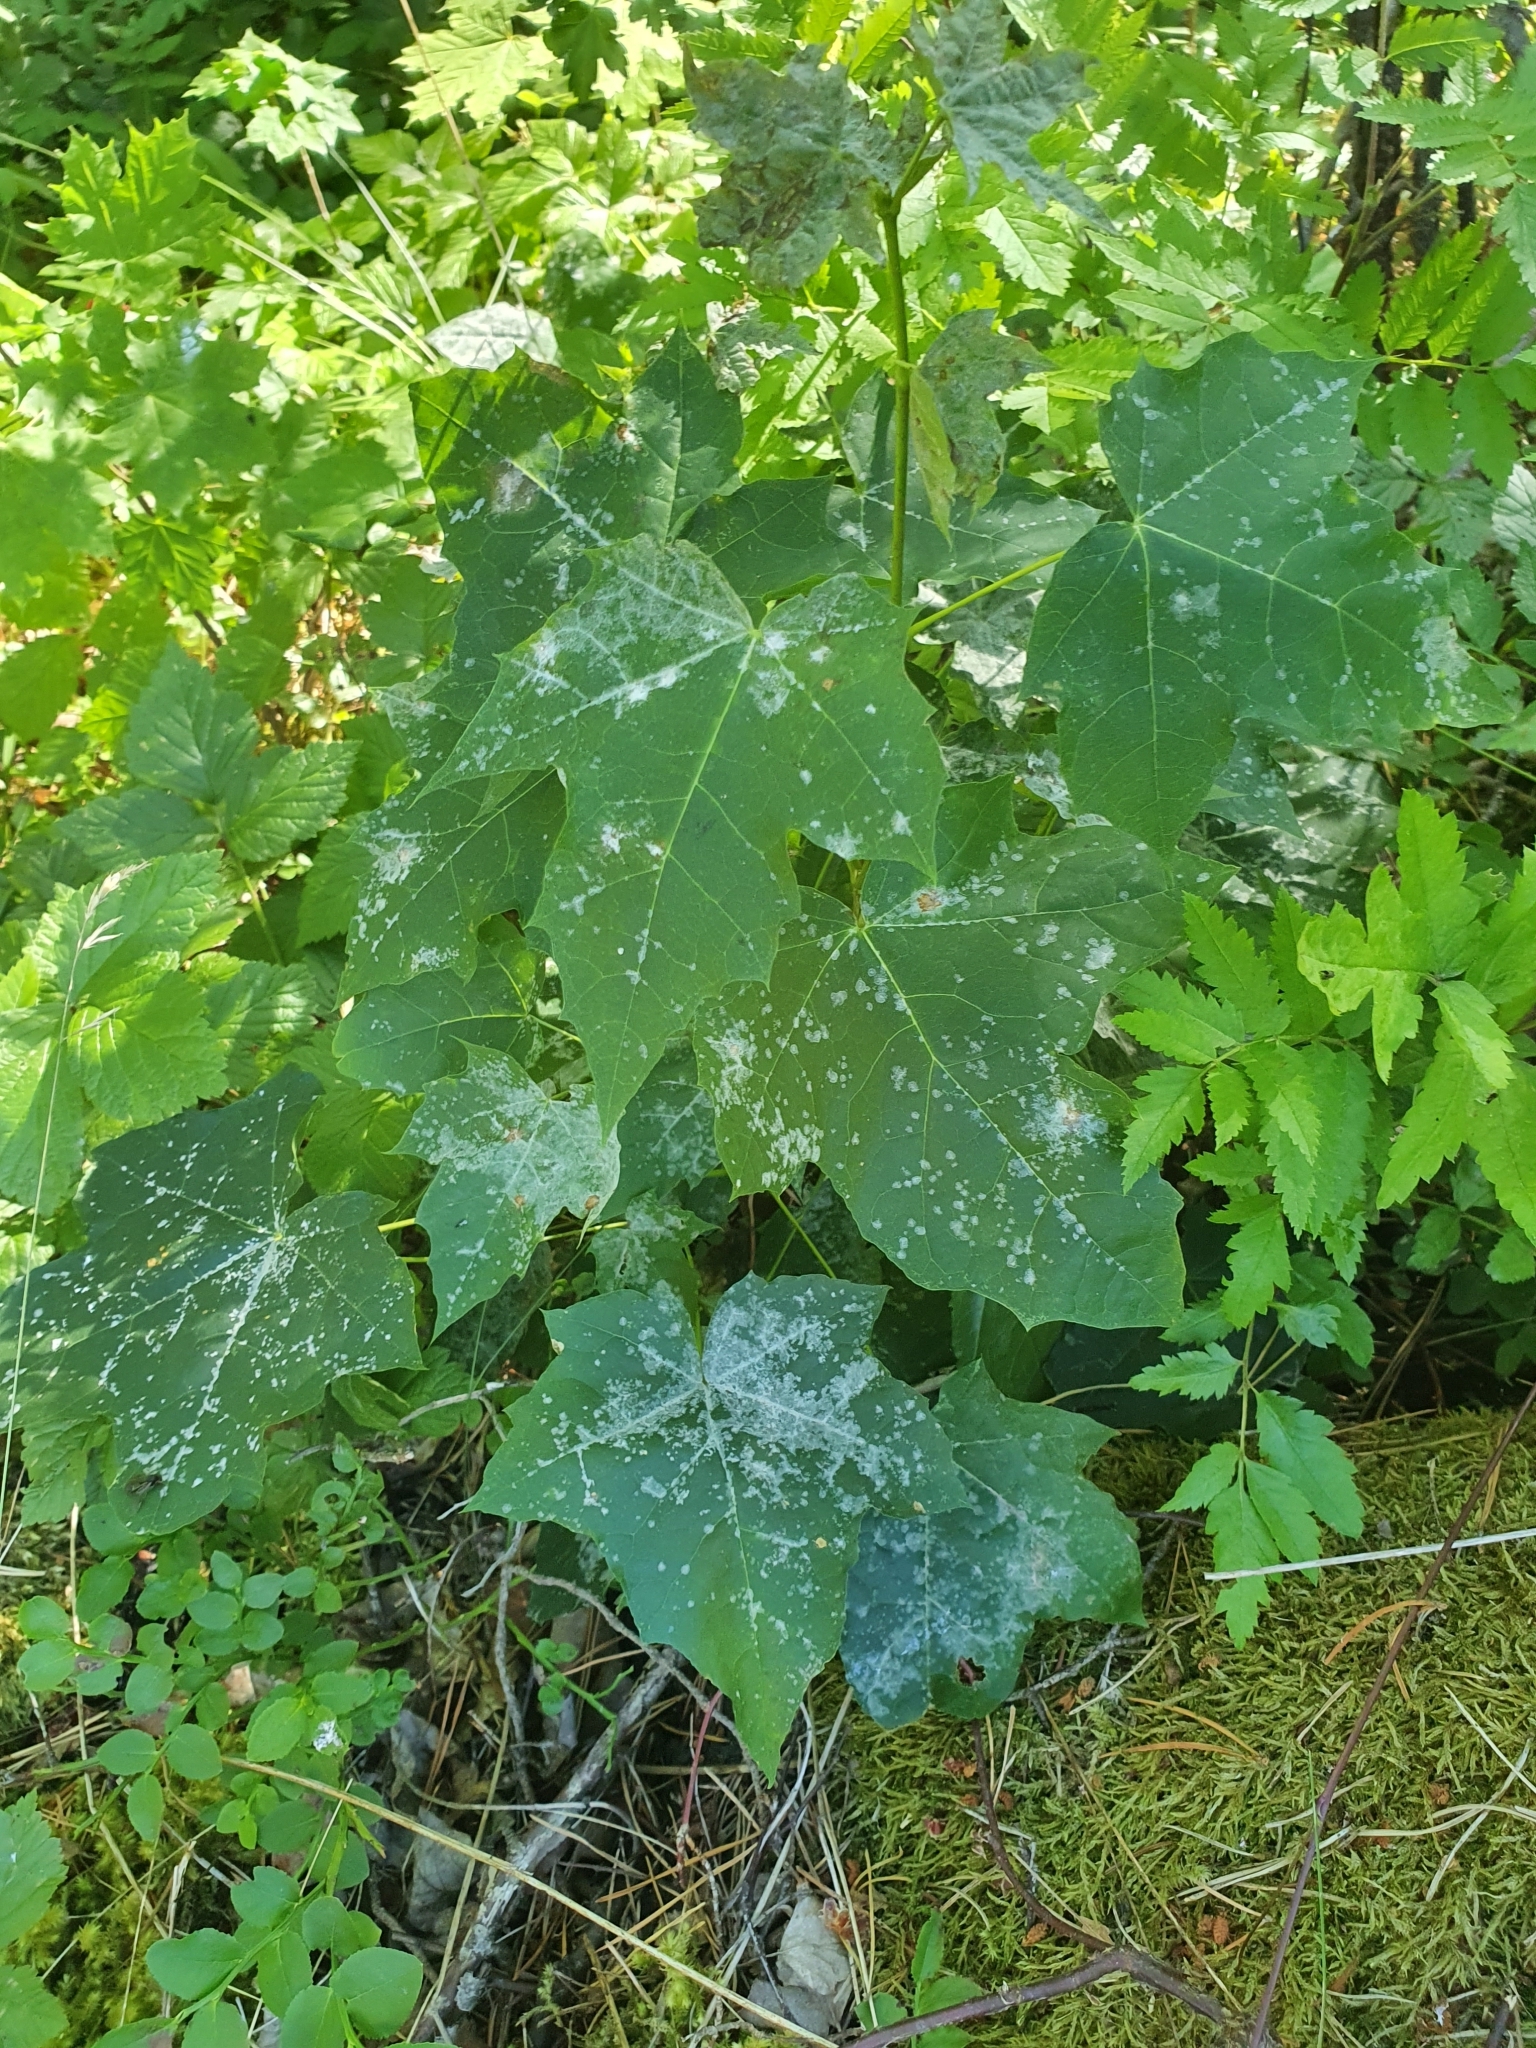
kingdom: Fungi
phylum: Ascomycota
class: Leotiomycetes
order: Helotiales
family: Erysiphaceae
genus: Sawadaea
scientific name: Sawadaea tulasnei
